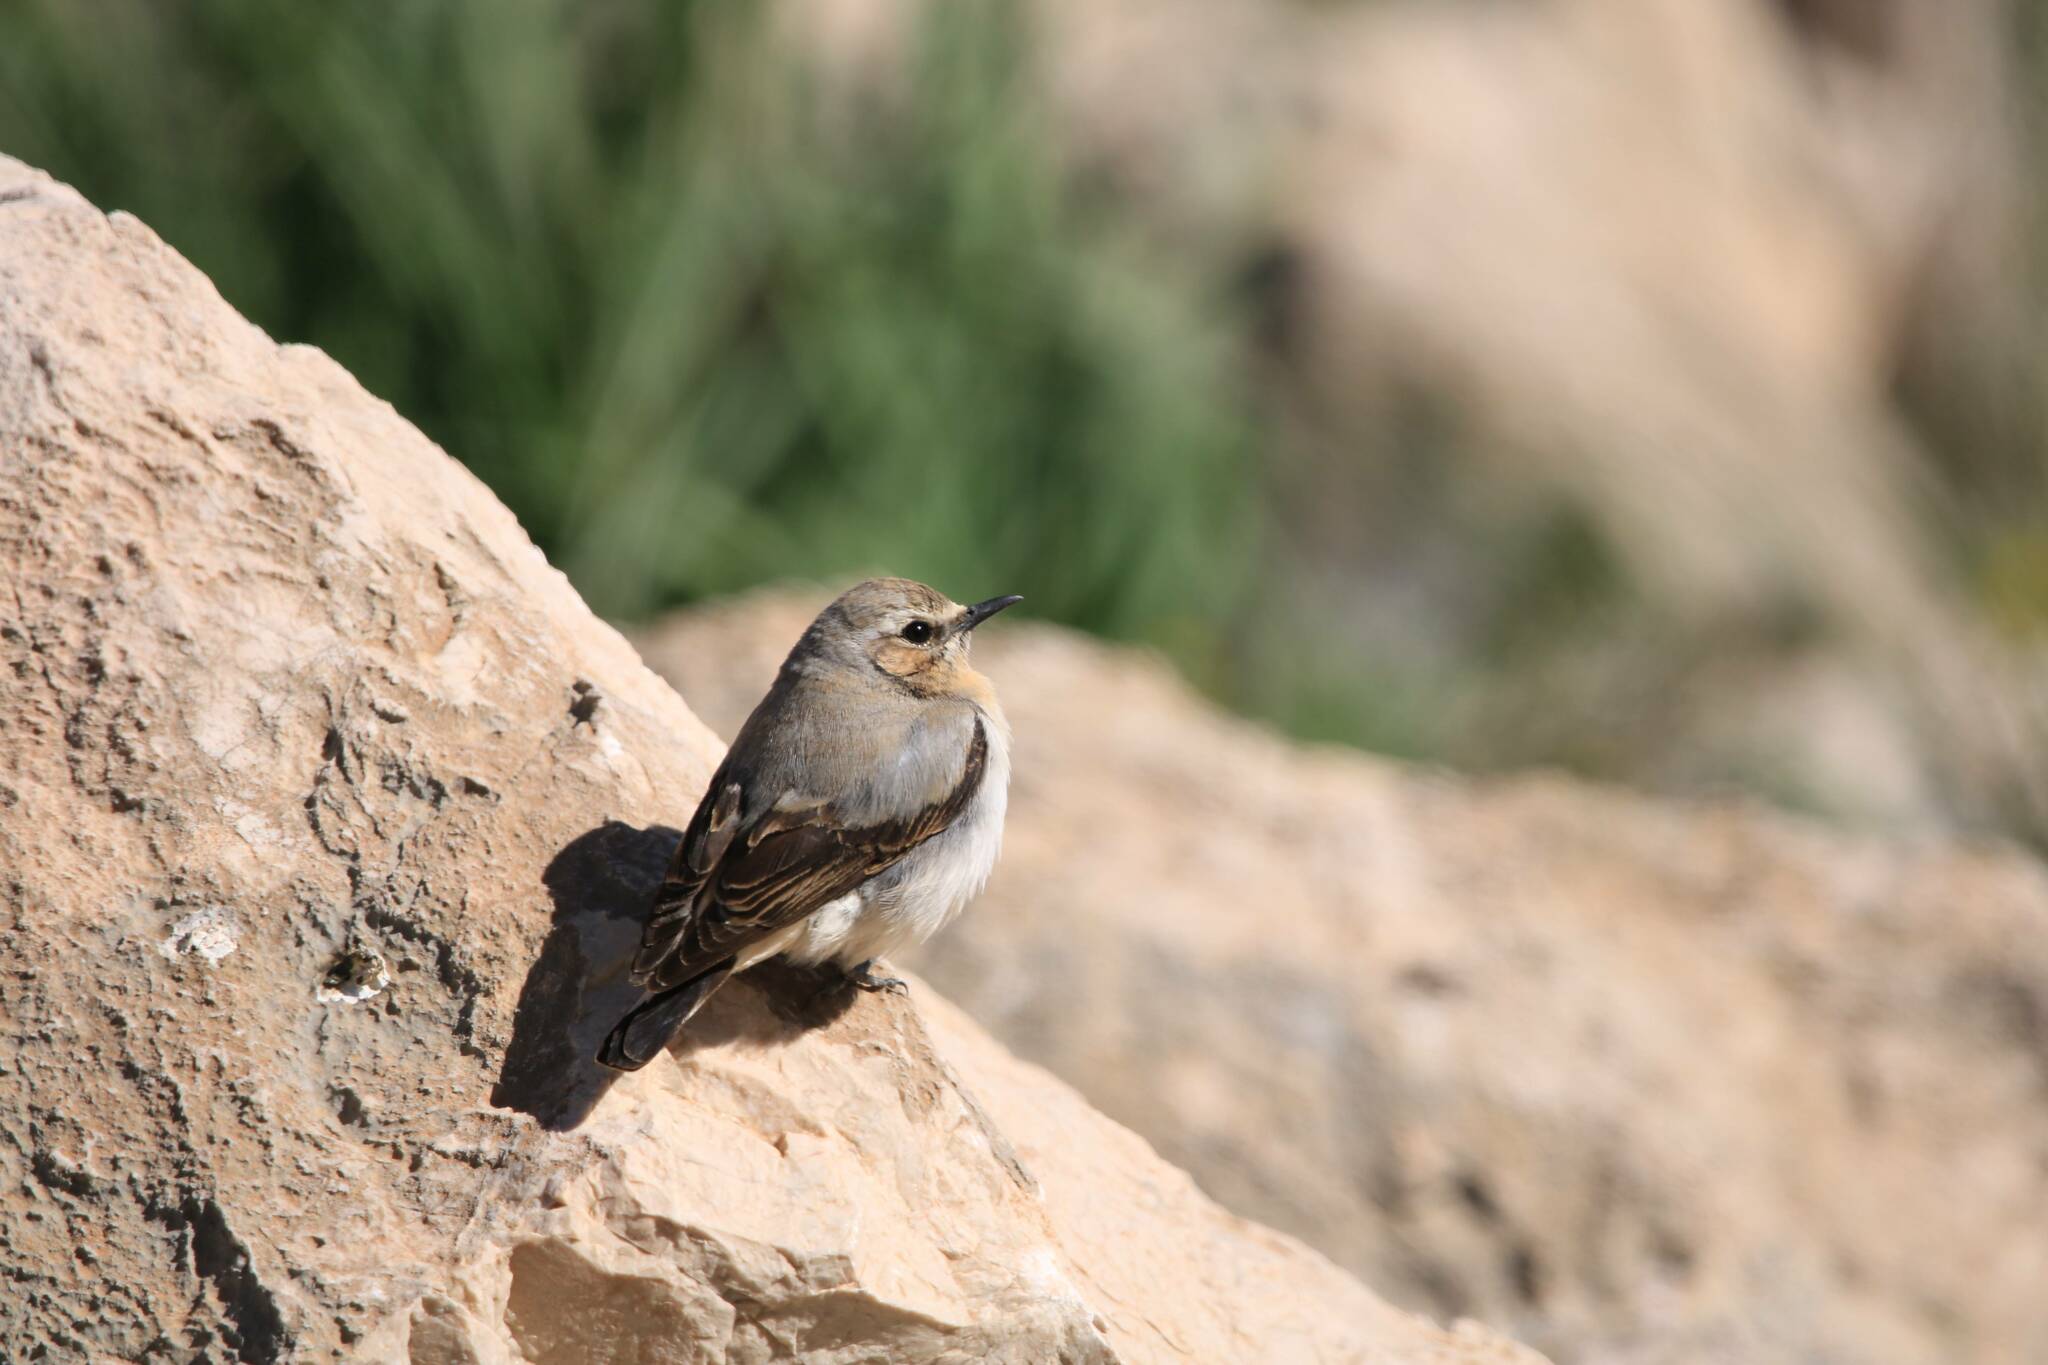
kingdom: Animalia
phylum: Chordata
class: Aves
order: Passeriformes
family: Muscicapidae
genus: Oenanthe
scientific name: Oenanthe oenanthe
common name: Northern wheatear
